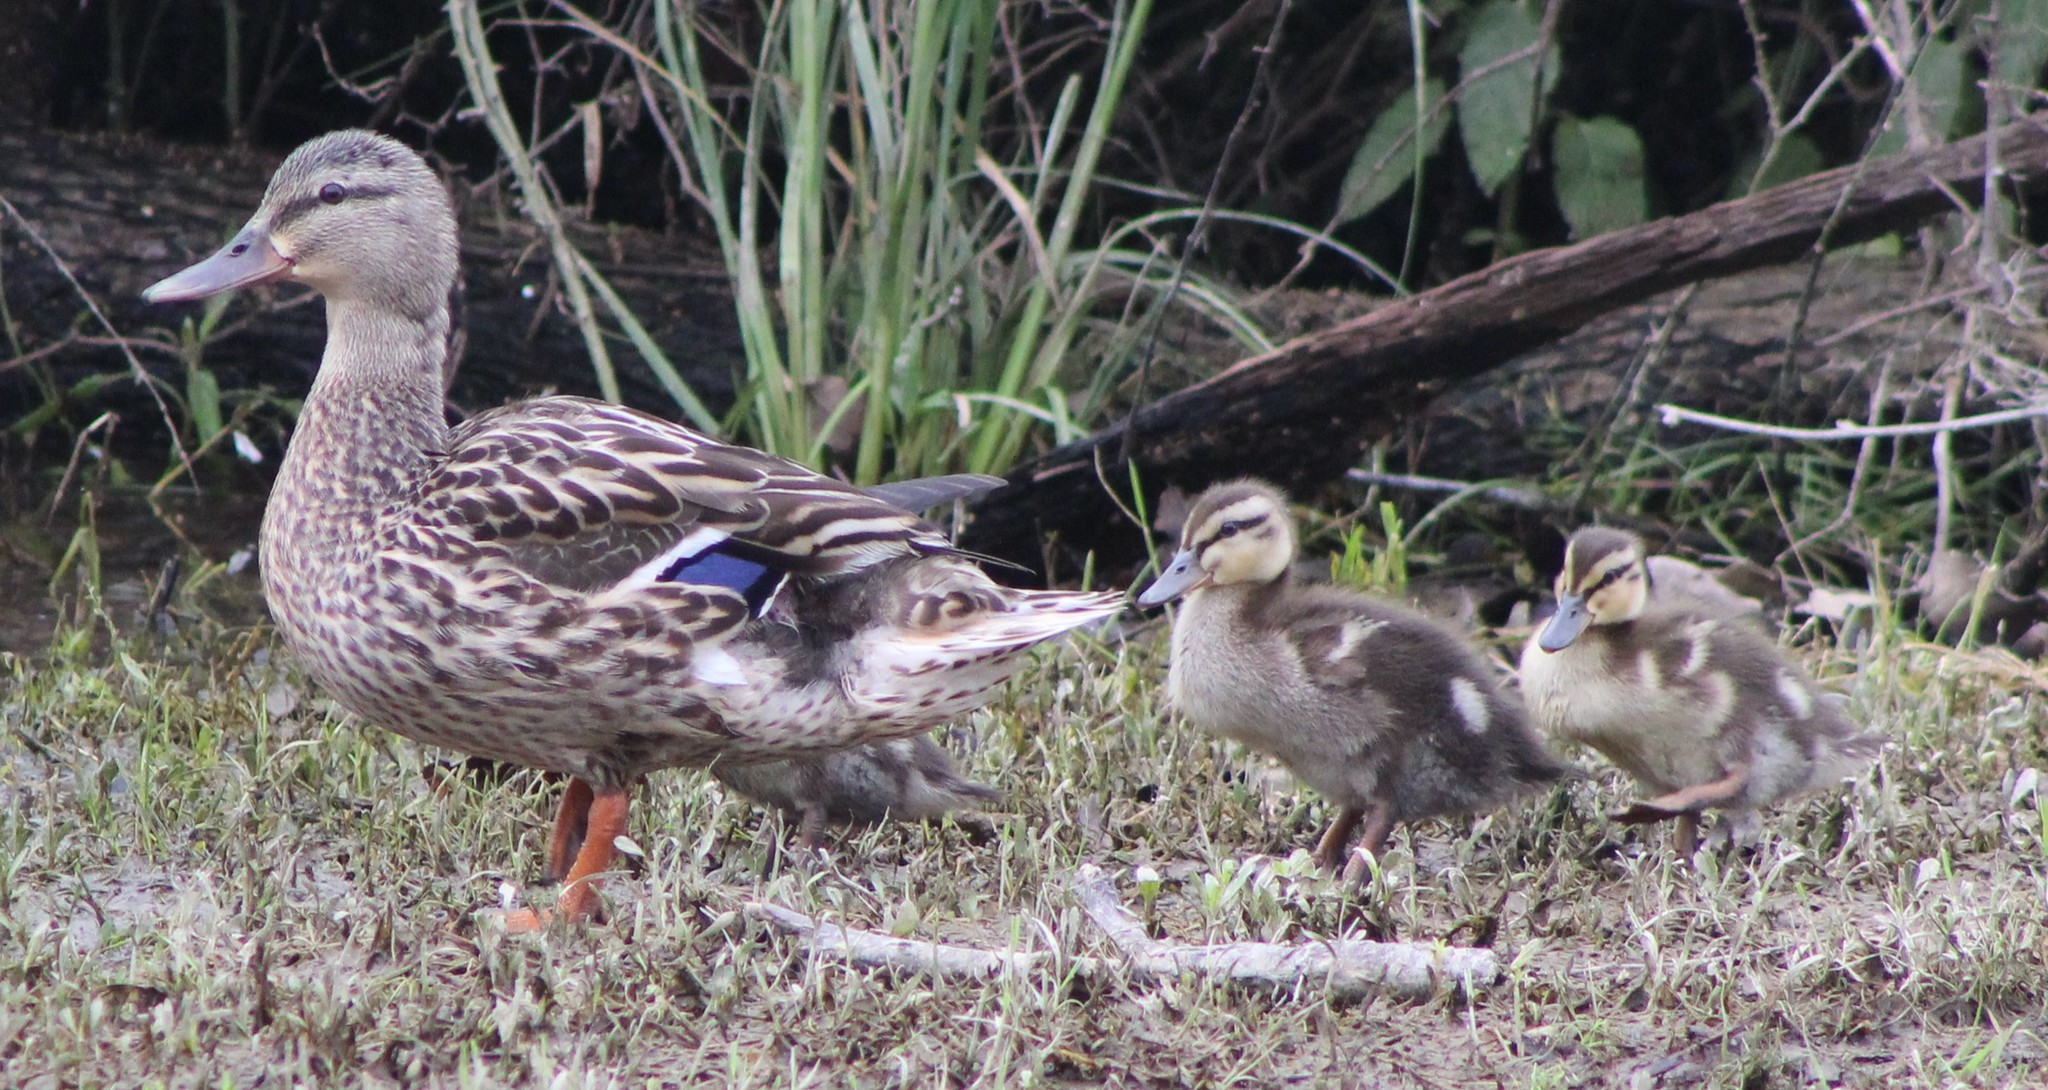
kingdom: Animalia
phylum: Chordata
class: Aves
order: Anseriformes
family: Anatidae
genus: Anas
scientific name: Anas platyrhynchos
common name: Mallard
